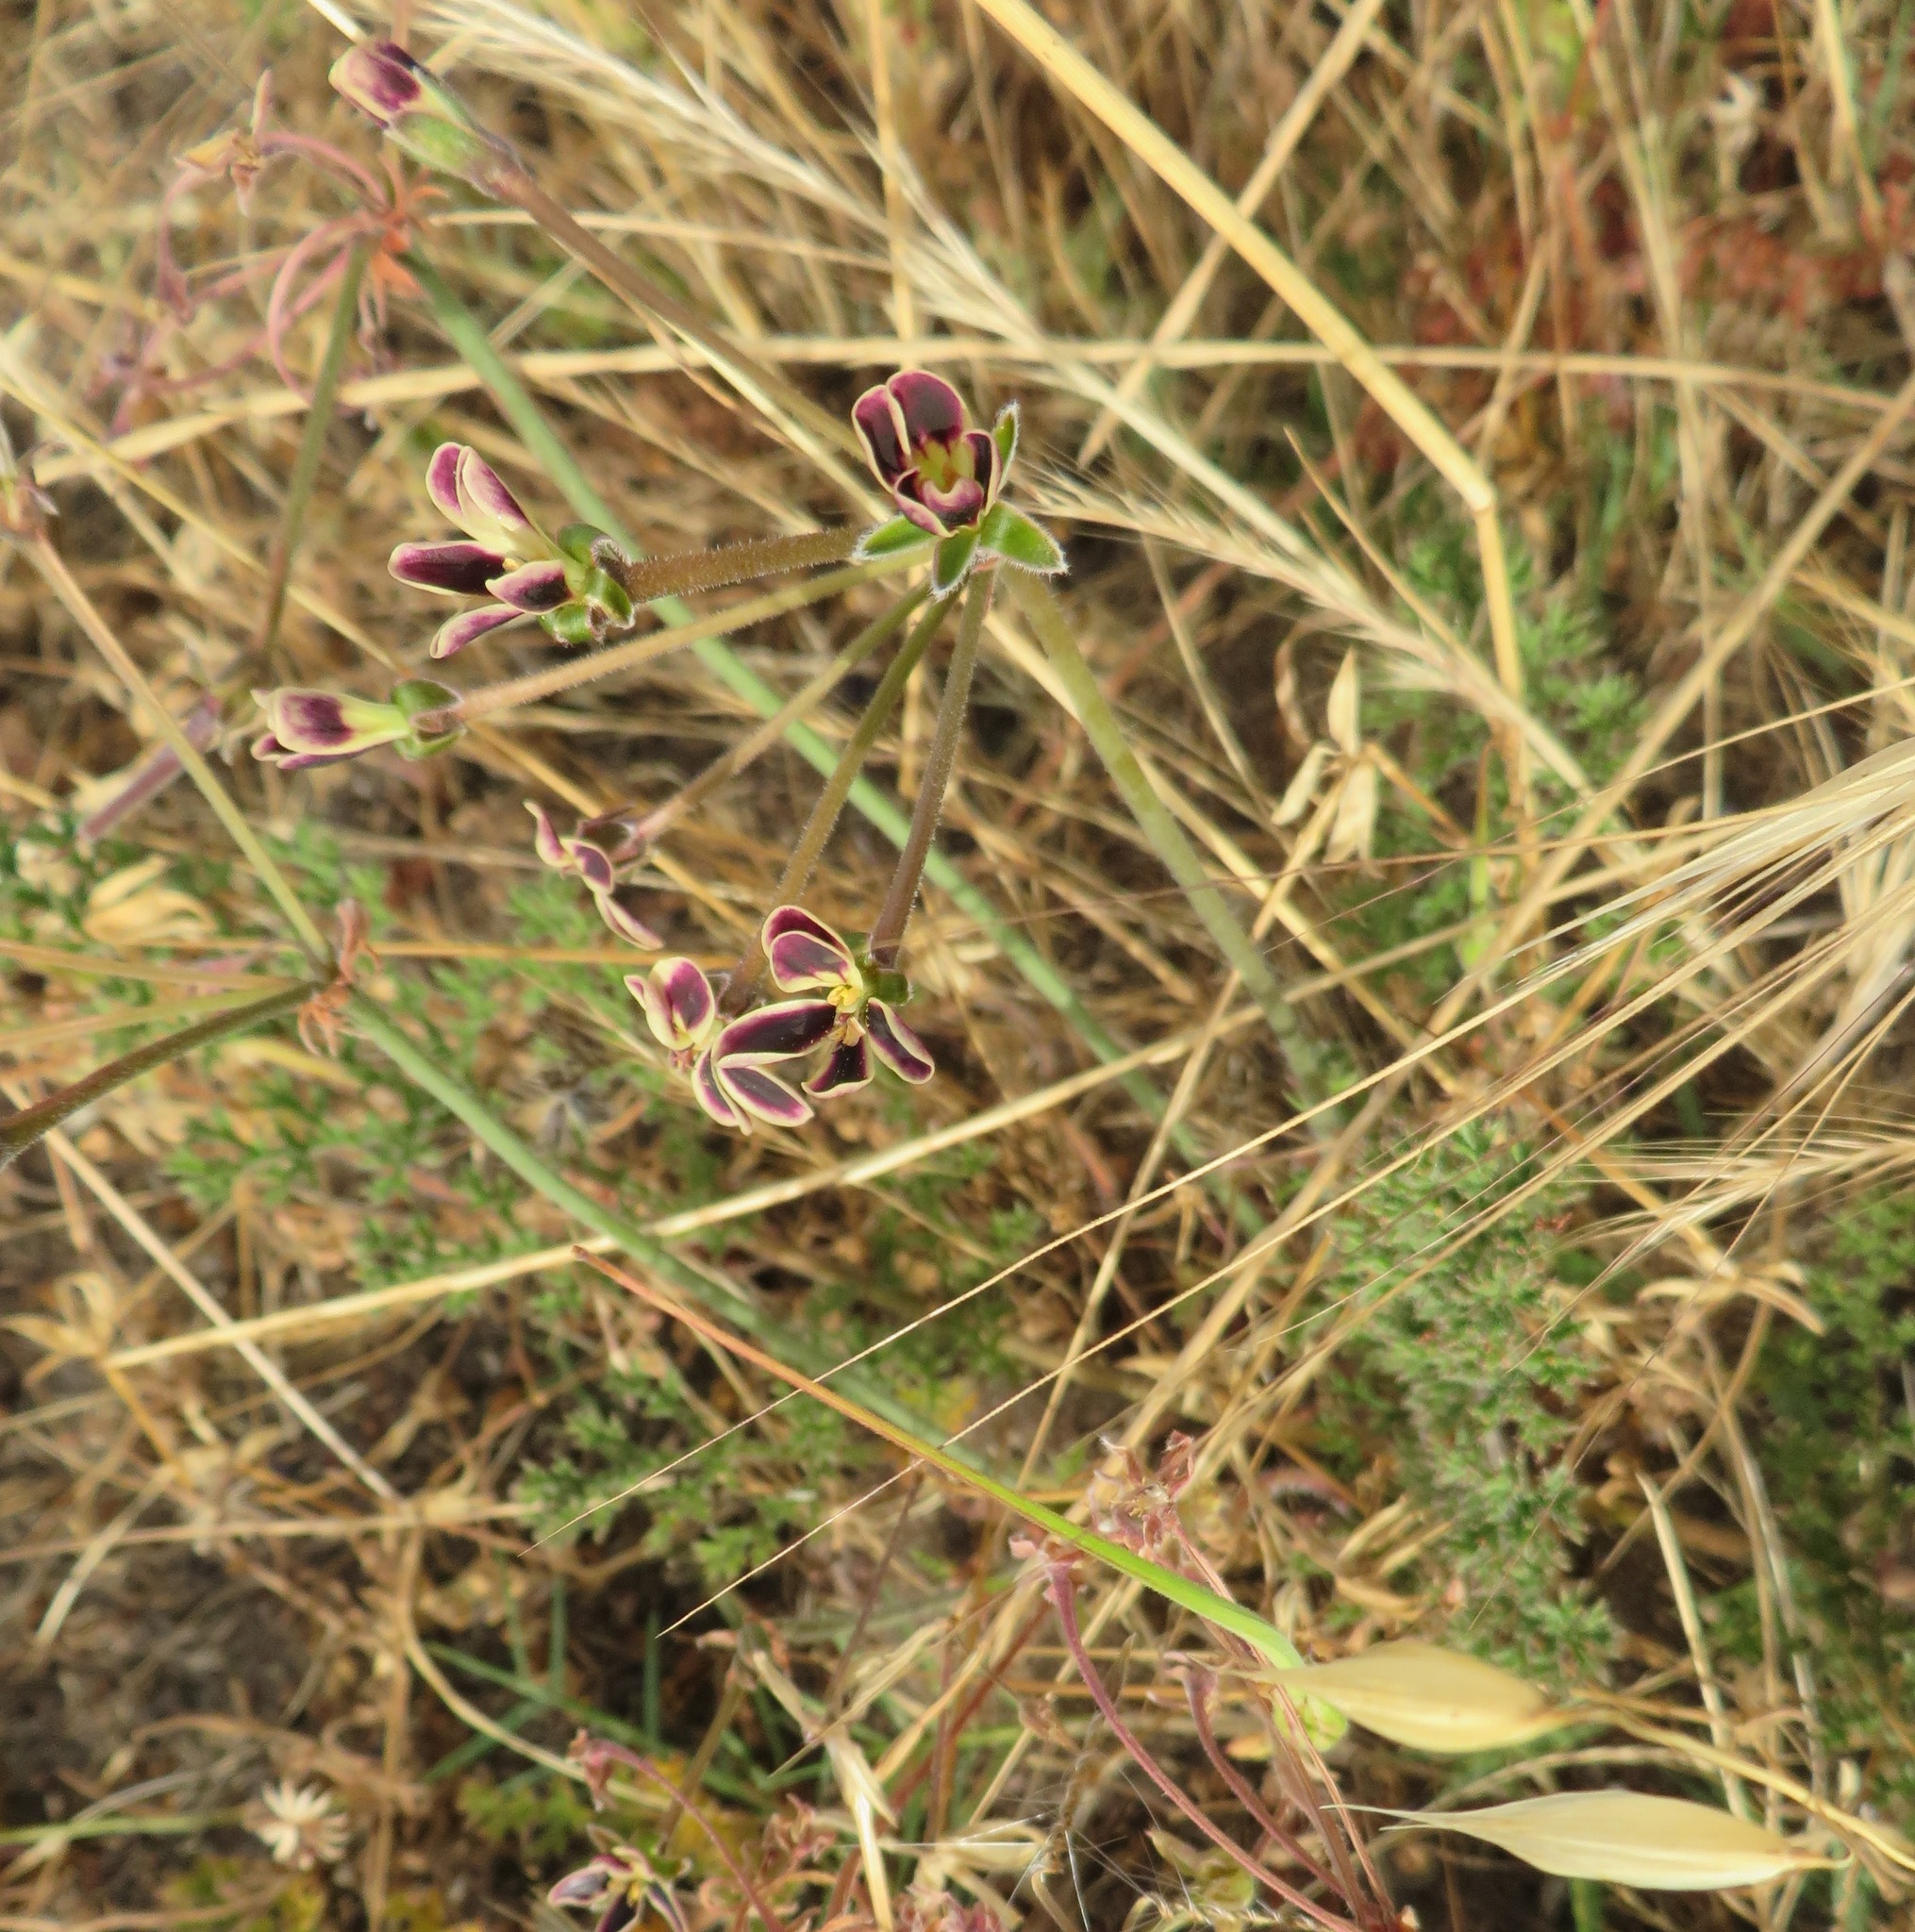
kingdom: Plantae
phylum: Tracheophyta
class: Magnoliopsida
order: Geraniales
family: Geraniaceae
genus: Pelargonium
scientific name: Pelargonium triste
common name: Night-scent pelargonium
